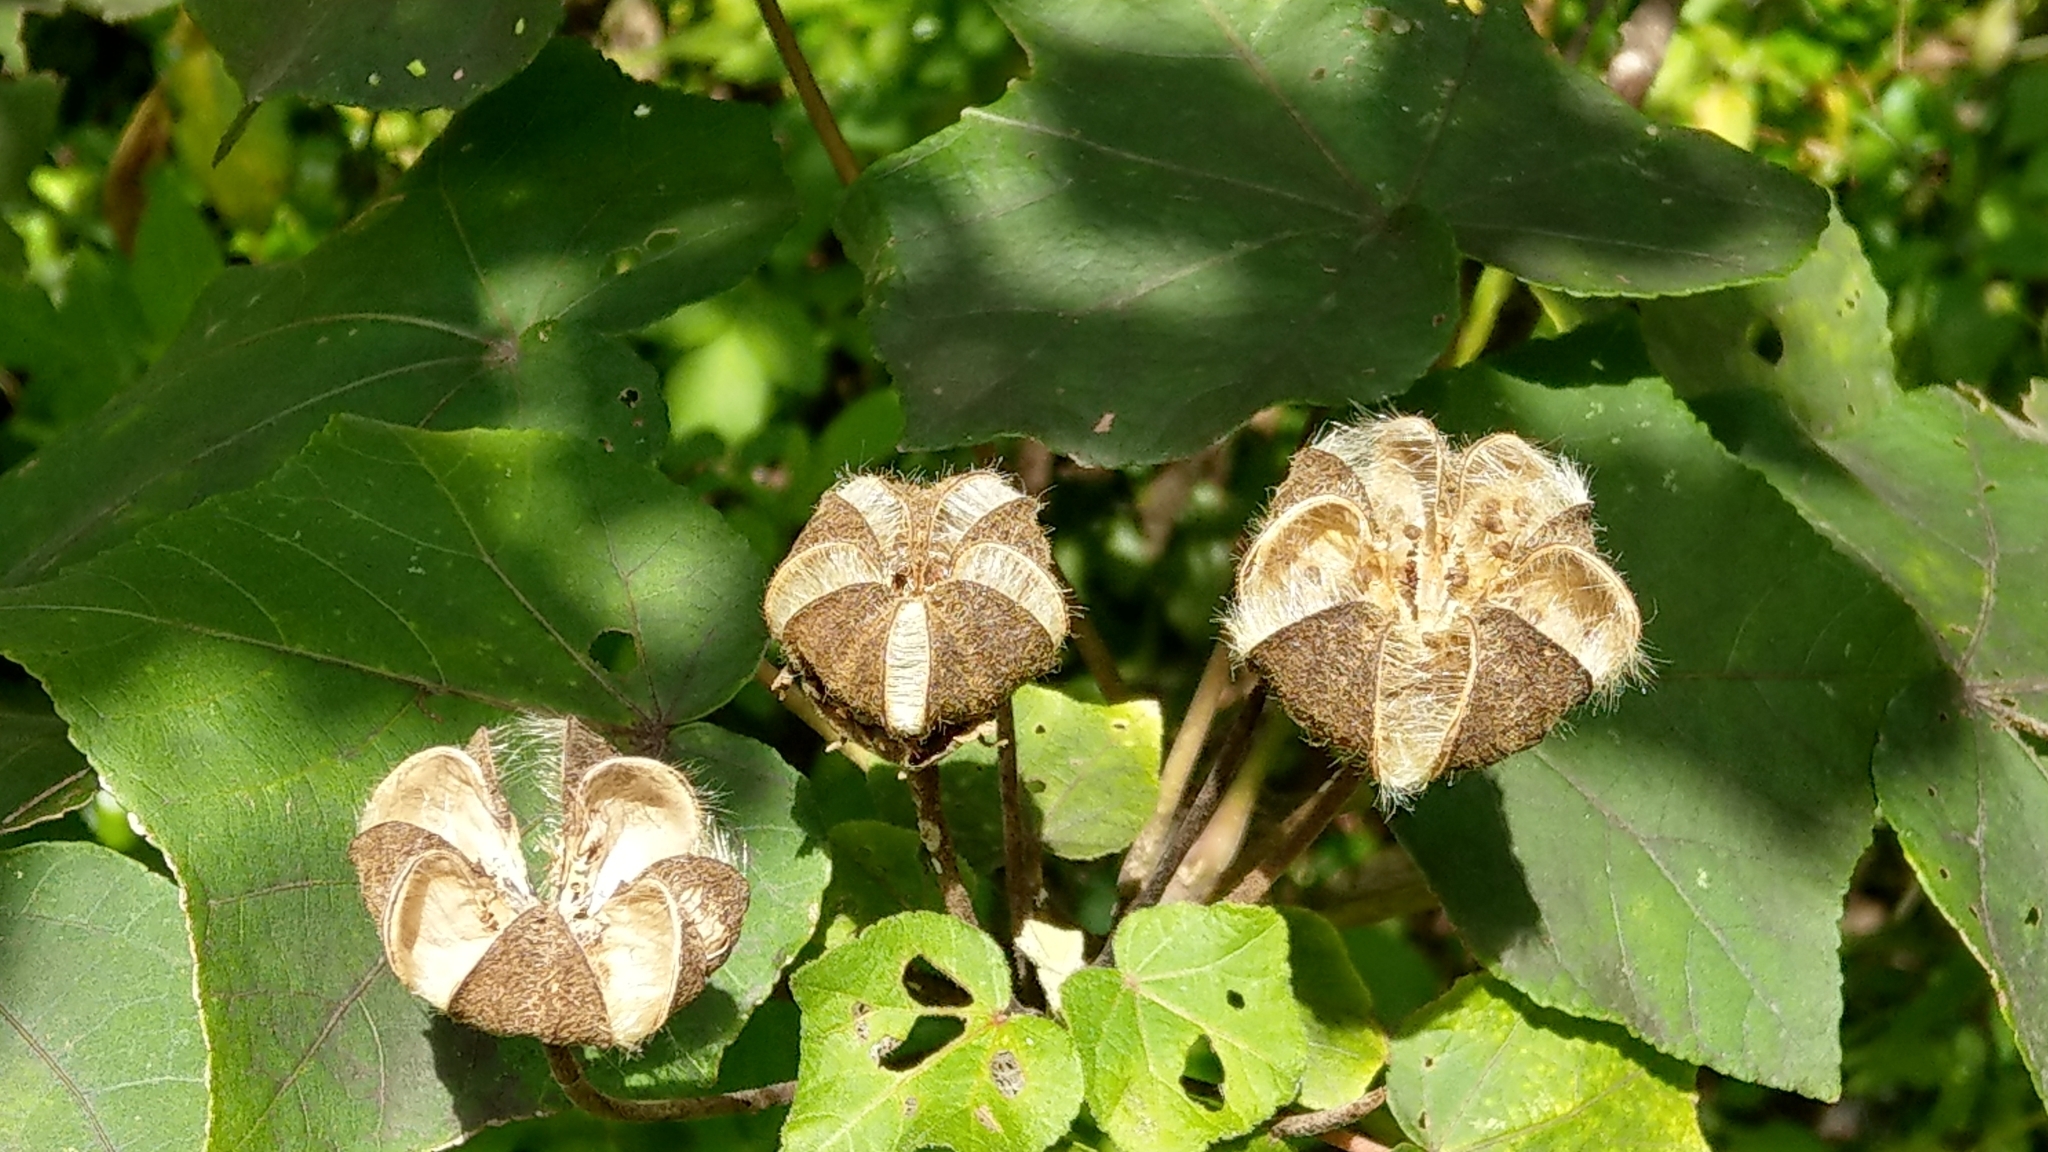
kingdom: Plantae
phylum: Tracheophyta
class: Magnoliopsida
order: Malvales
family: Malvaceae
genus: Hibiscus
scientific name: Hibiscus taiwanensis
